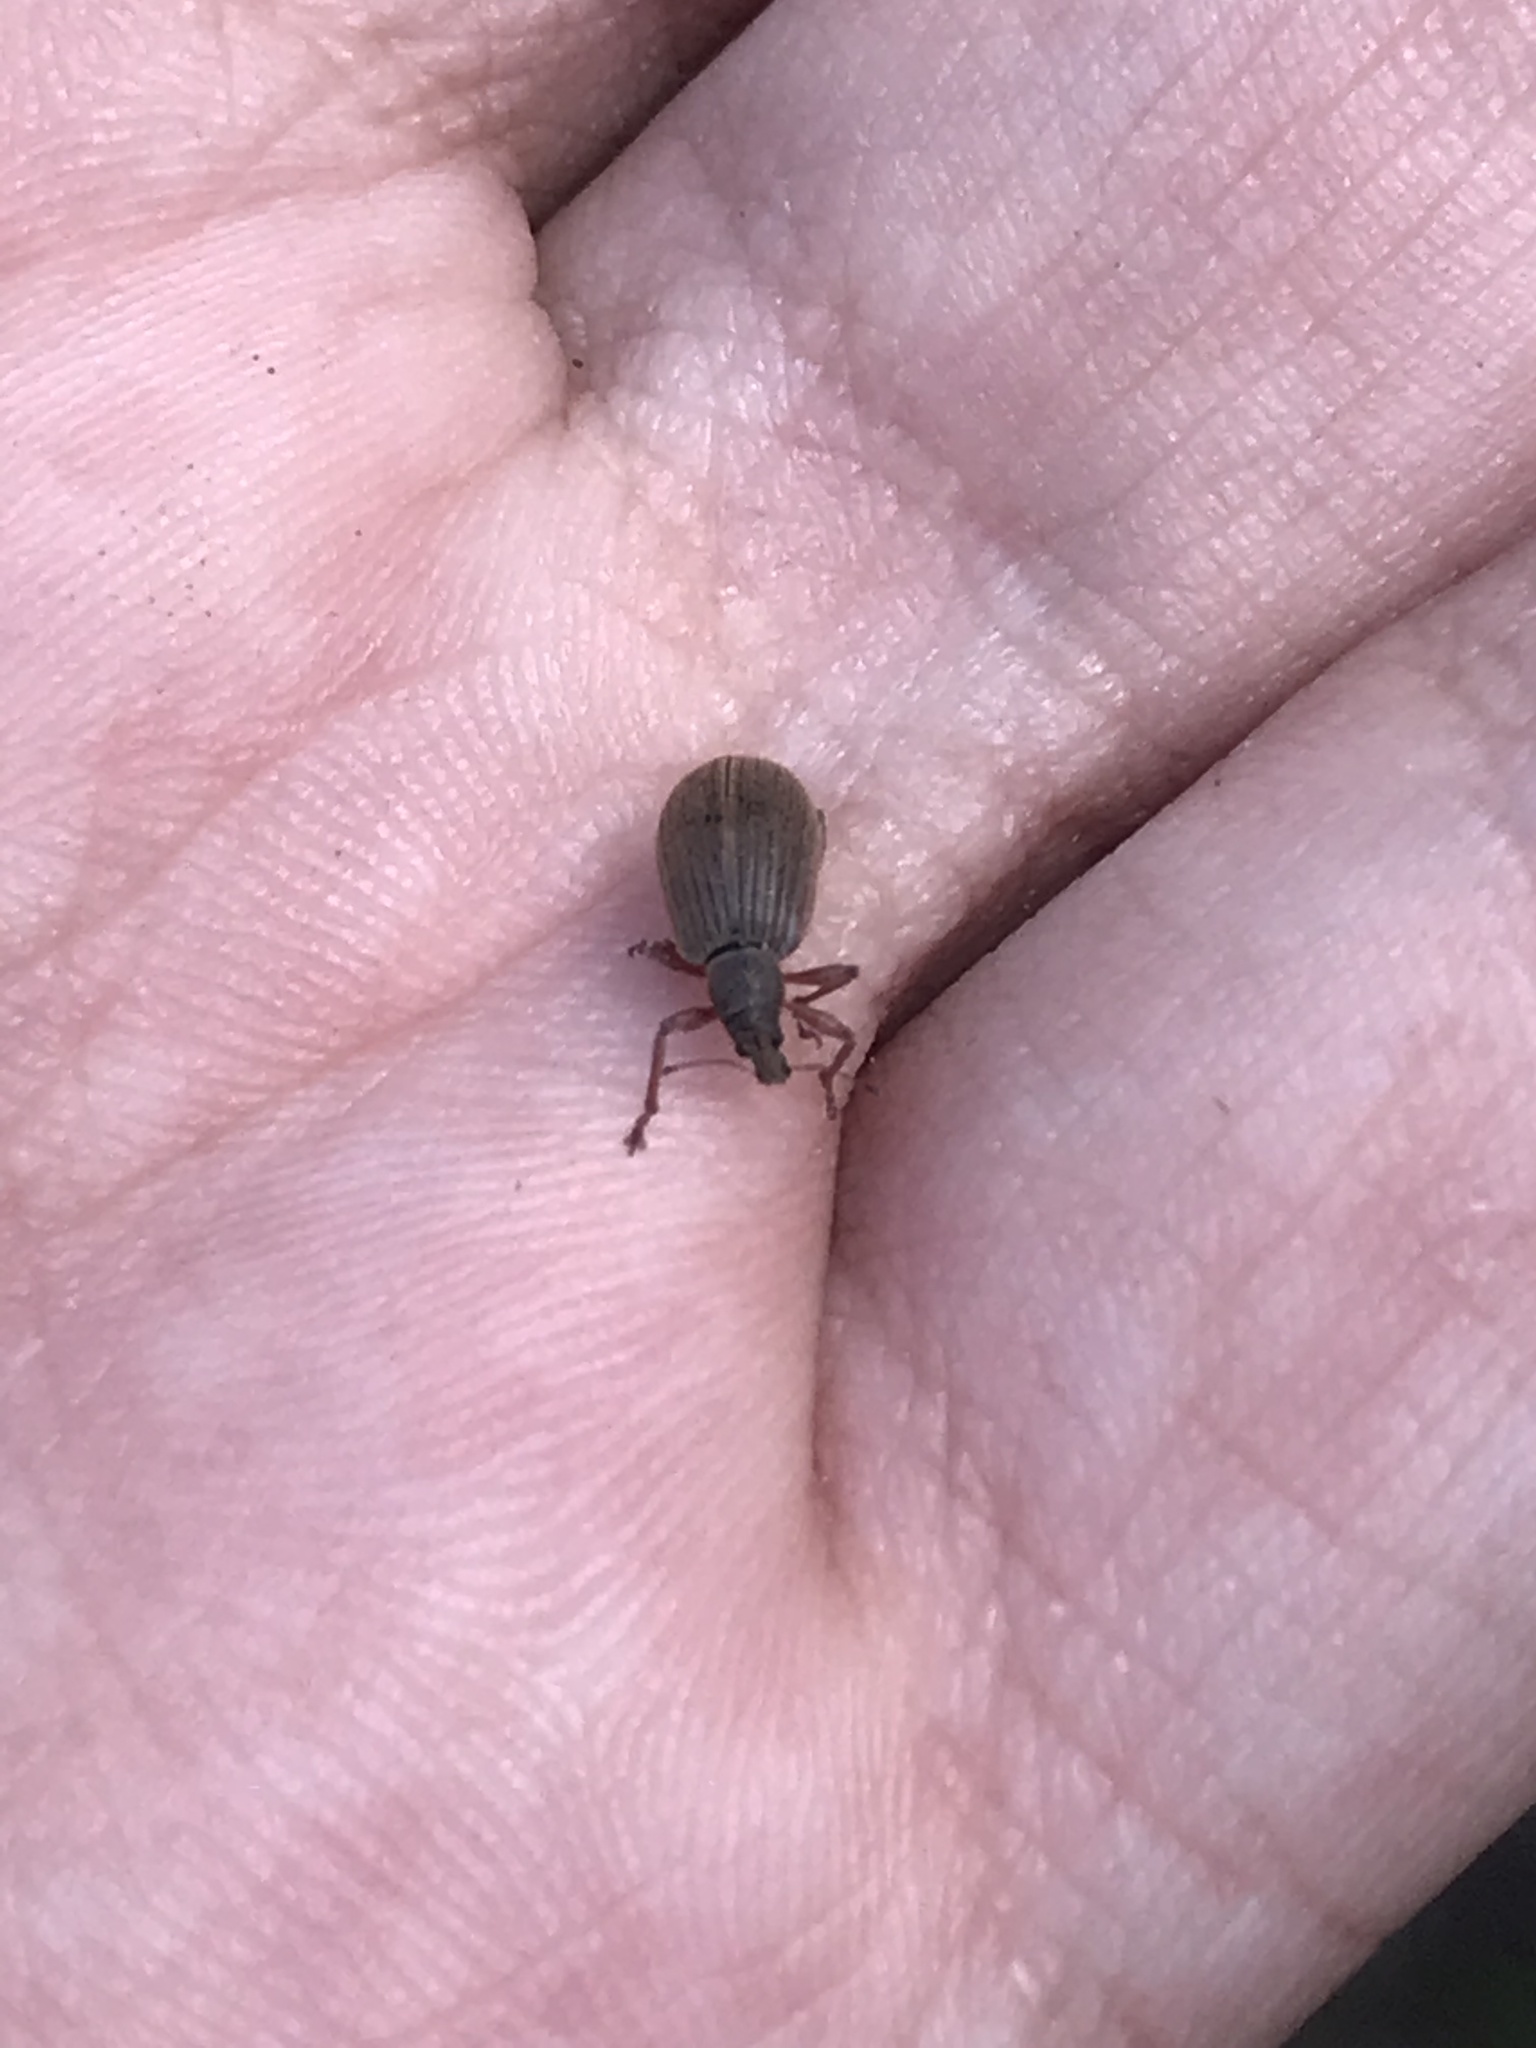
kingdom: Animalia
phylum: Arthropoda
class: Insecta
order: Coleoptera
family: Curculionidae
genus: Polydrusus
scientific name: Polydrusus mollis
